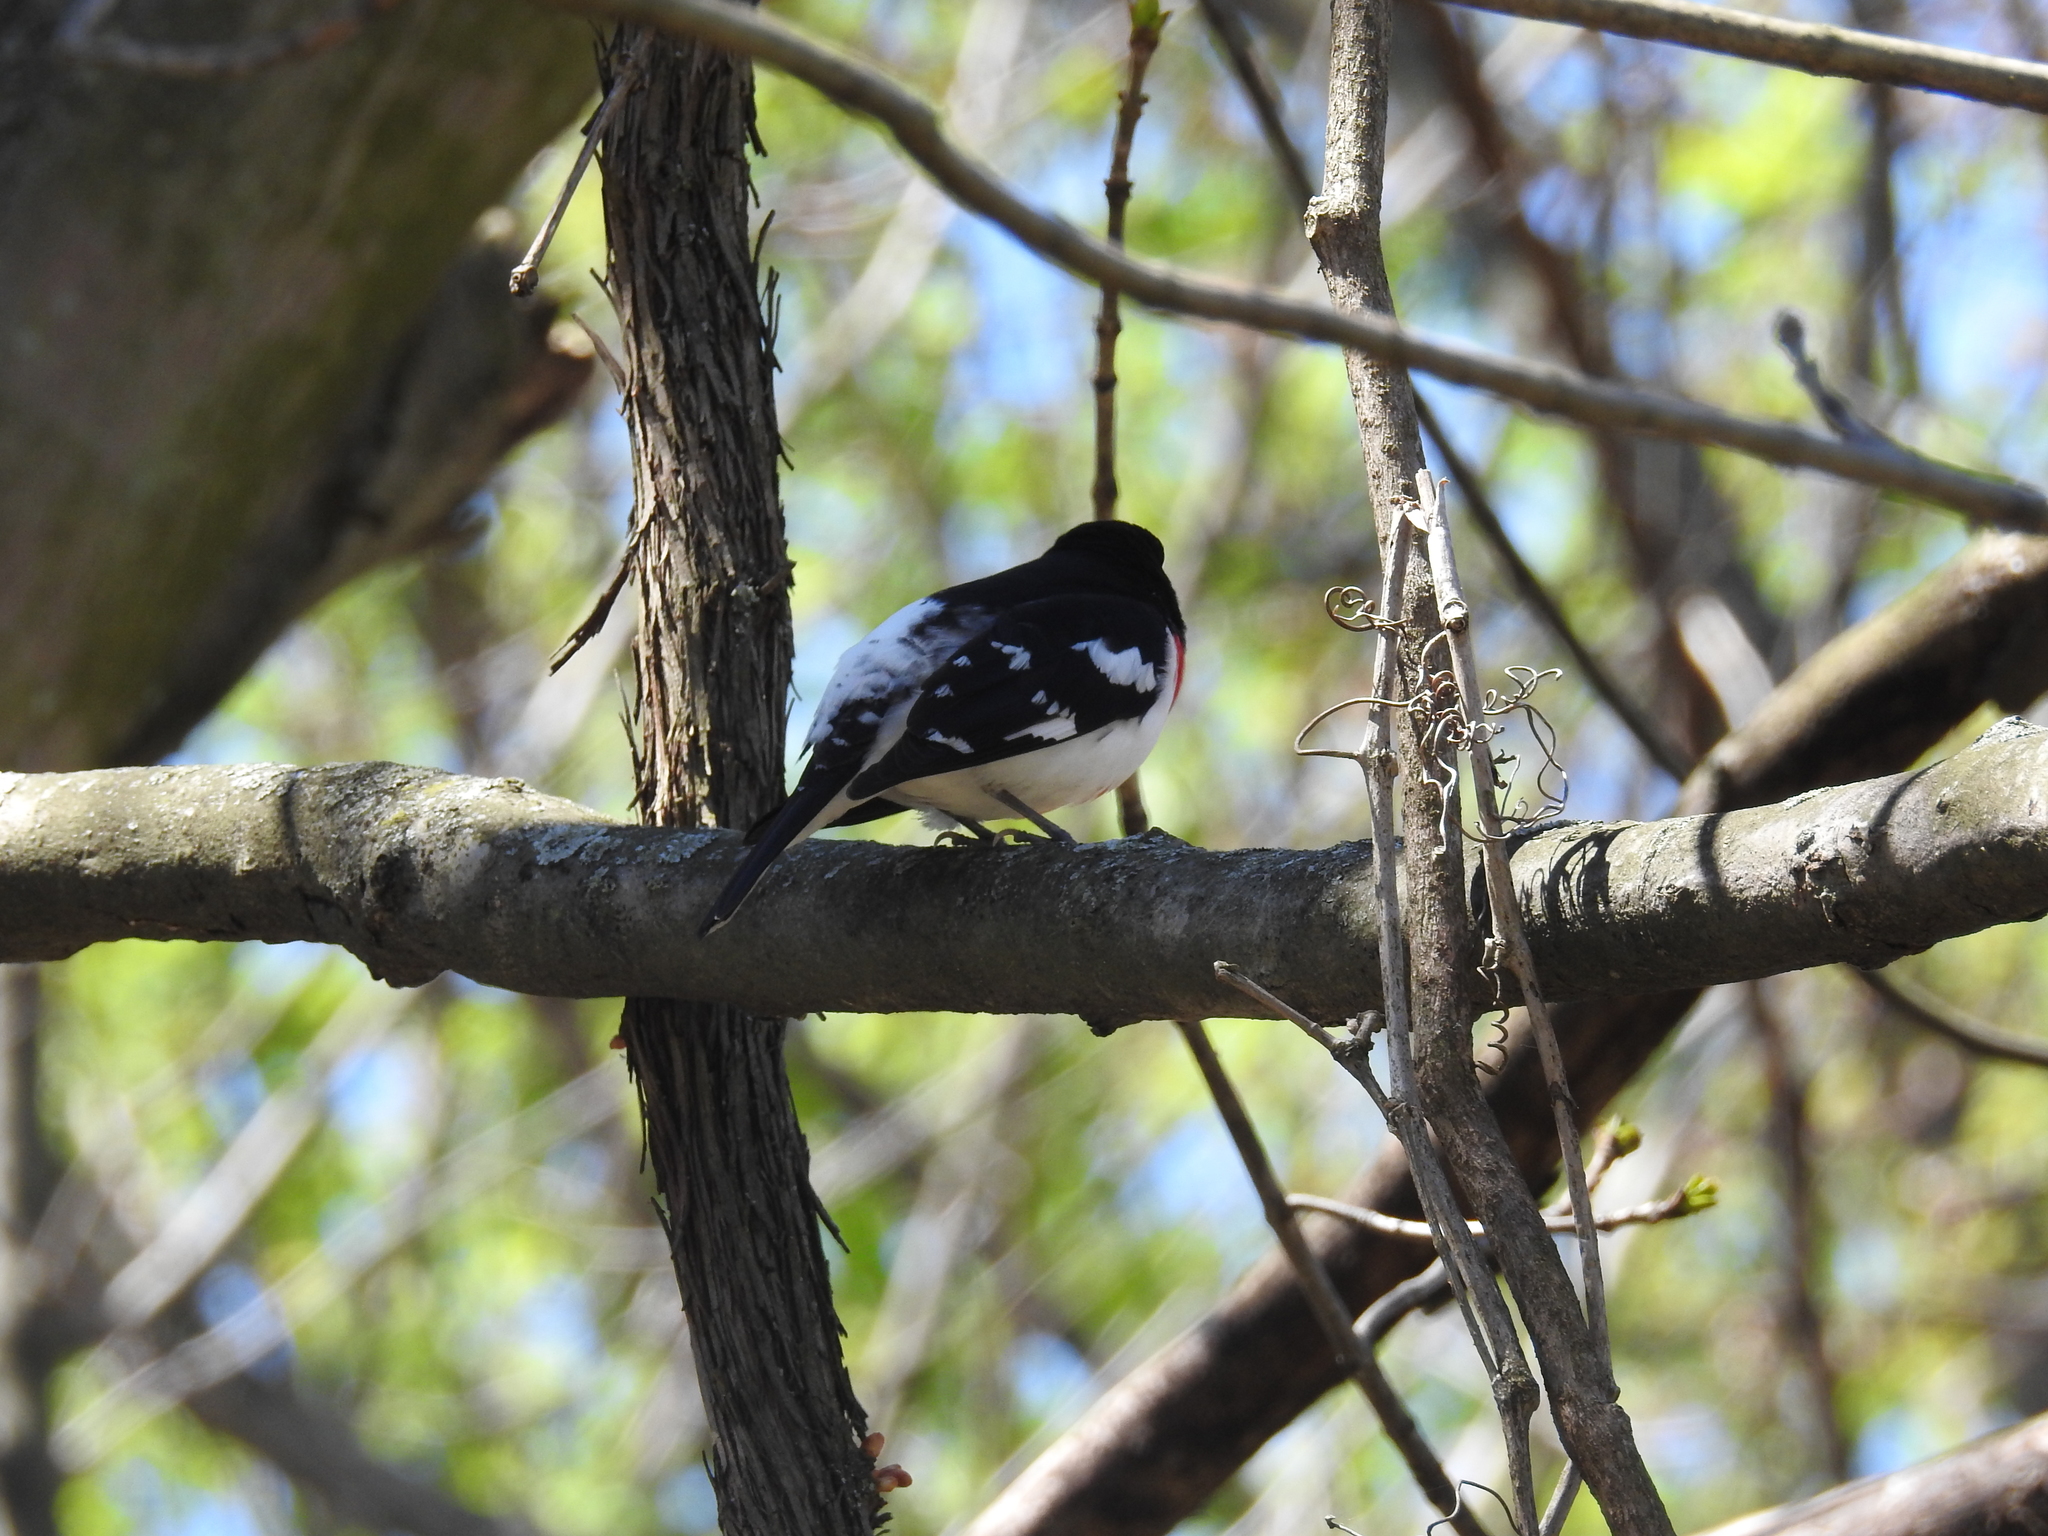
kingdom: Animalia
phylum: Chordata
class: Aves
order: Passeriformes
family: Cardinalidae
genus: Pheucticus
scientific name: Pheucticus ludovicianus
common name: Rose-breasted grosbeak
